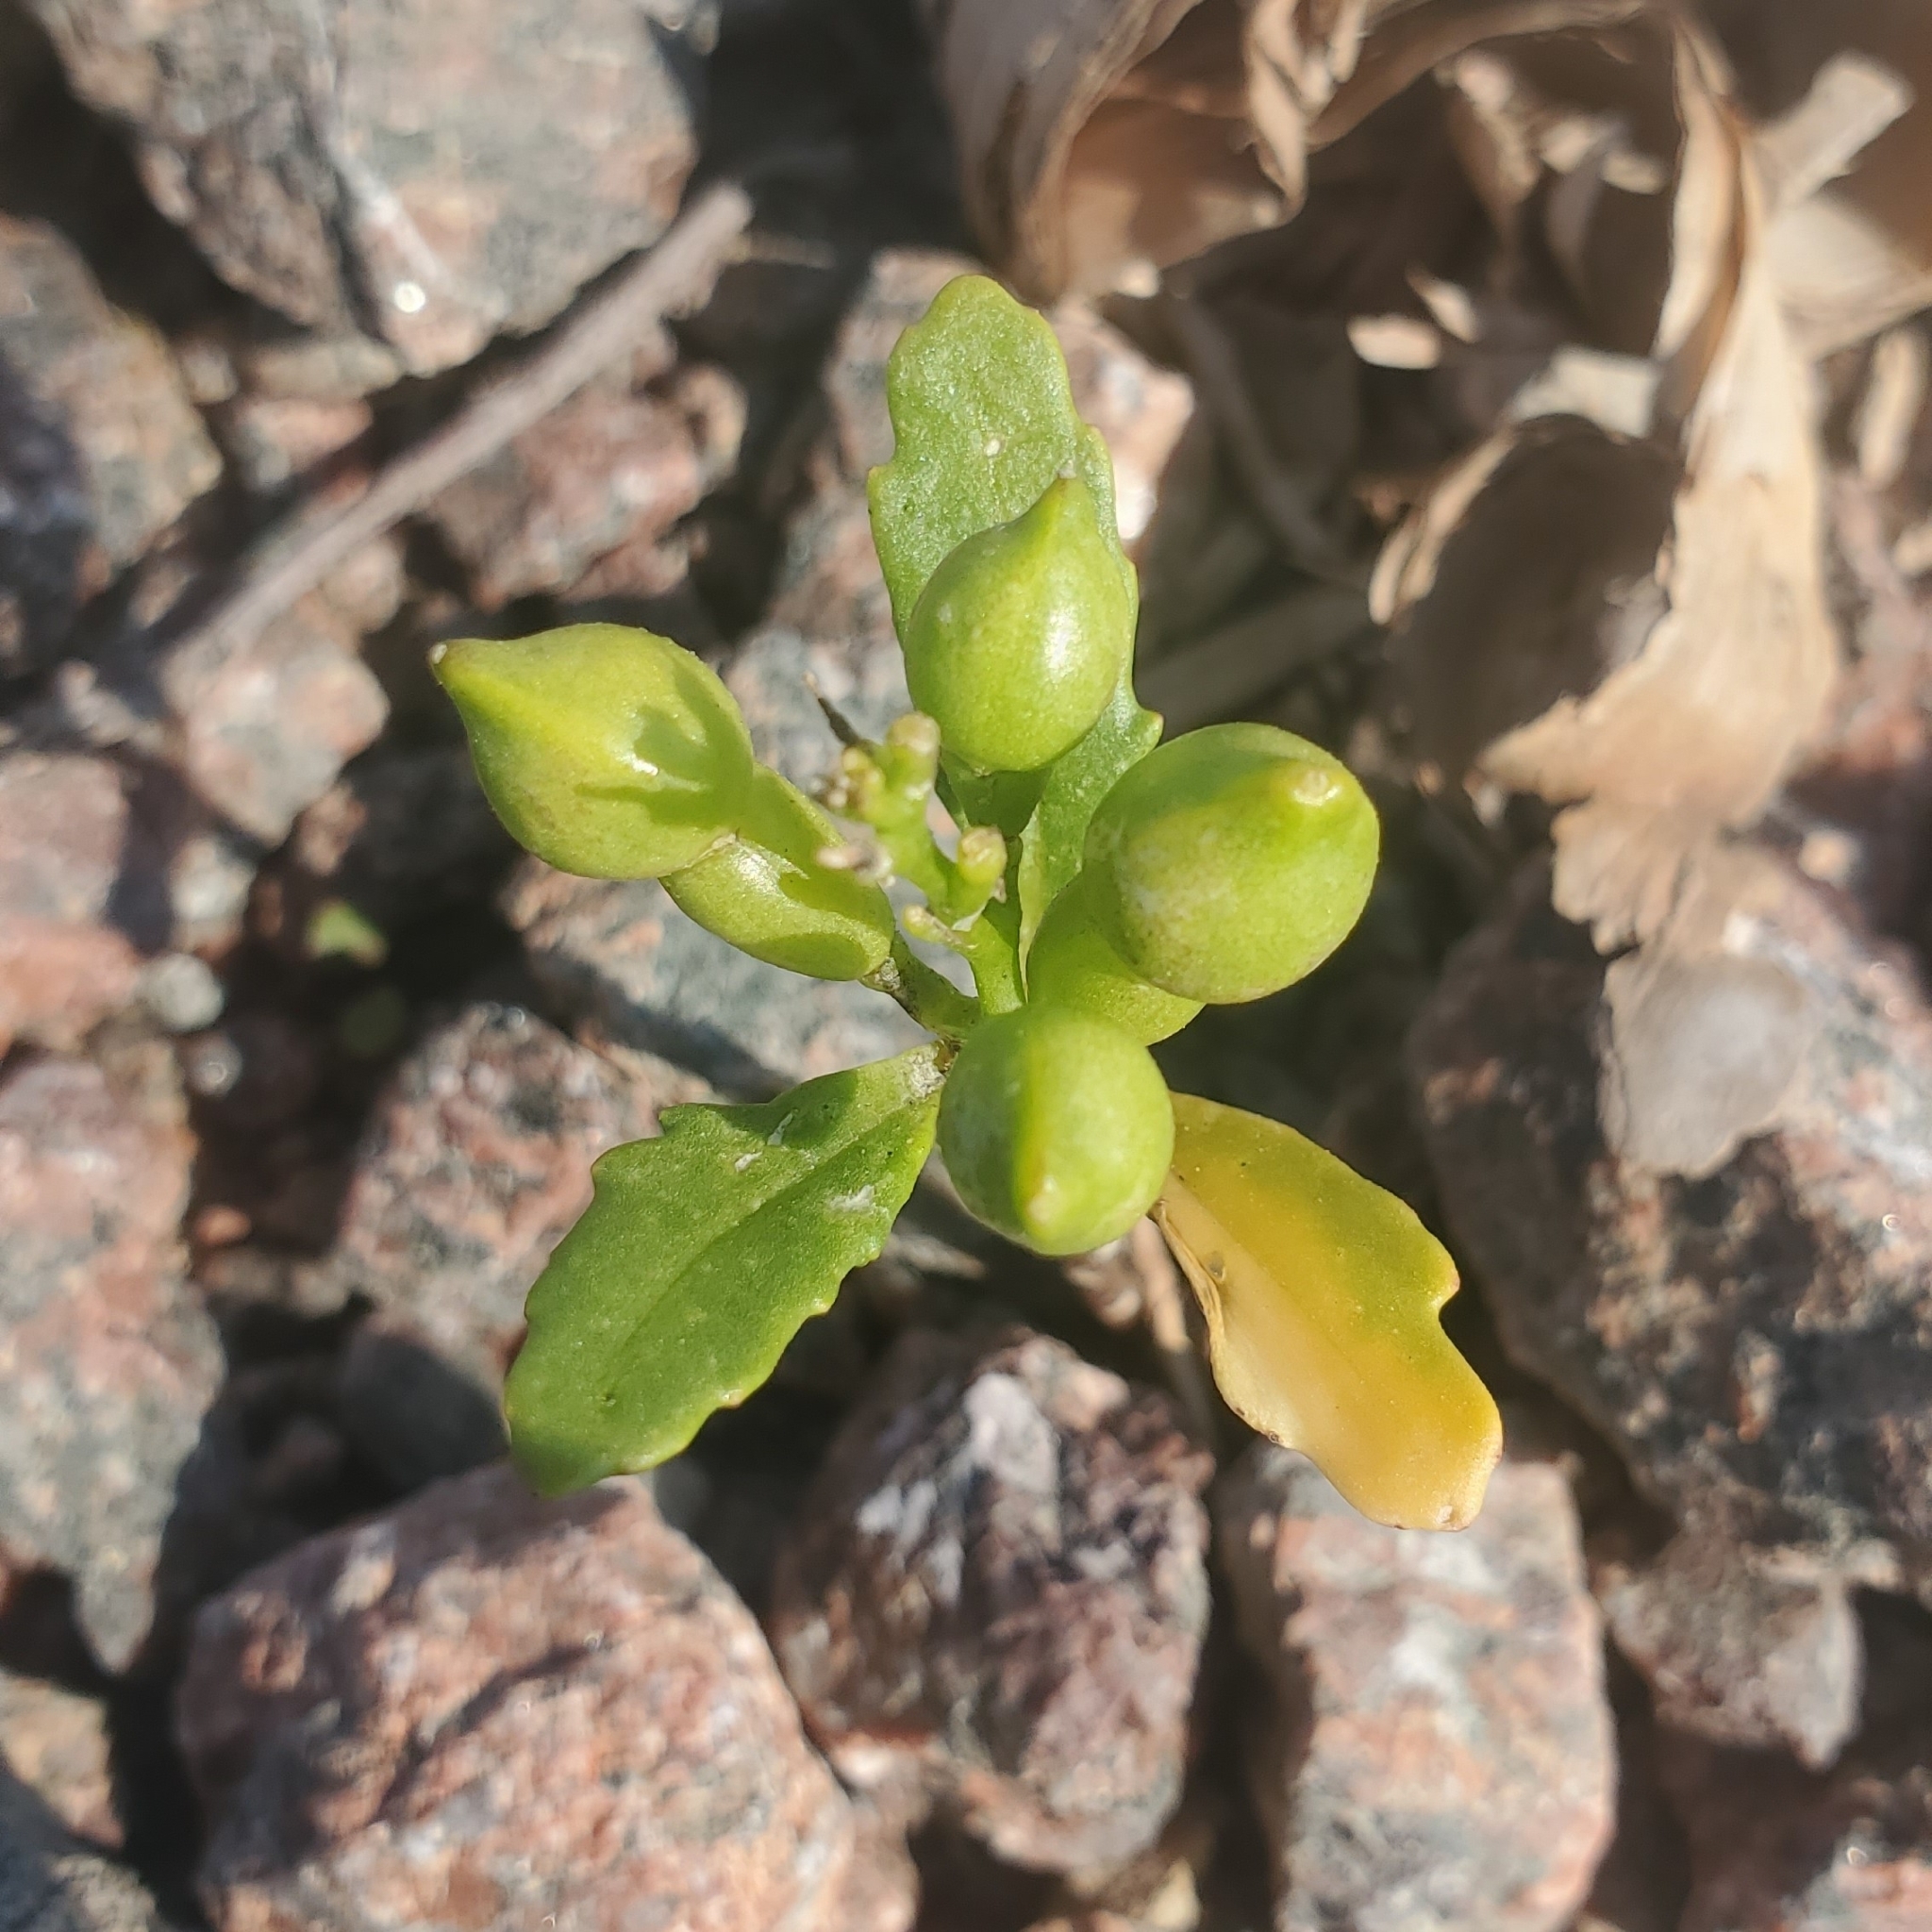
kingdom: Plantae
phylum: Tracheophyta
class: Magnoliopsida
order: Brassicales
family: Brassicaceae
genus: Cakile
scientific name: Cakile edentula
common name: American sea rocket
